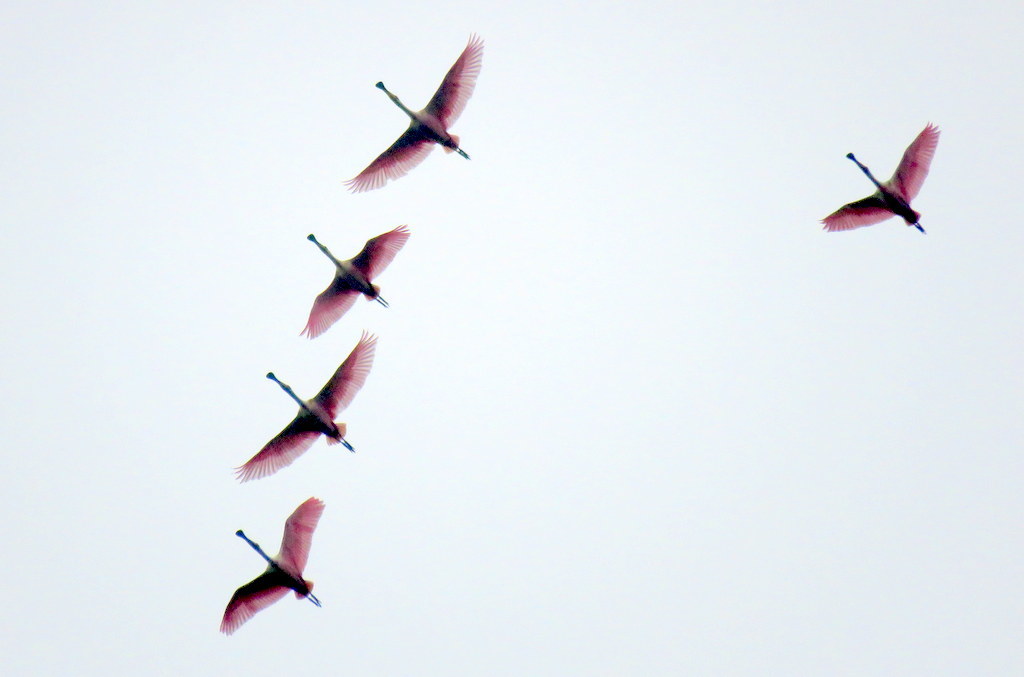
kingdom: Animalia
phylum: Chordata
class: Aves
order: Pelecaniformes
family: Threskiornithidae
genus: Platalea
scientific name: Platalea ajaja
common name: Roseate spoonbill
